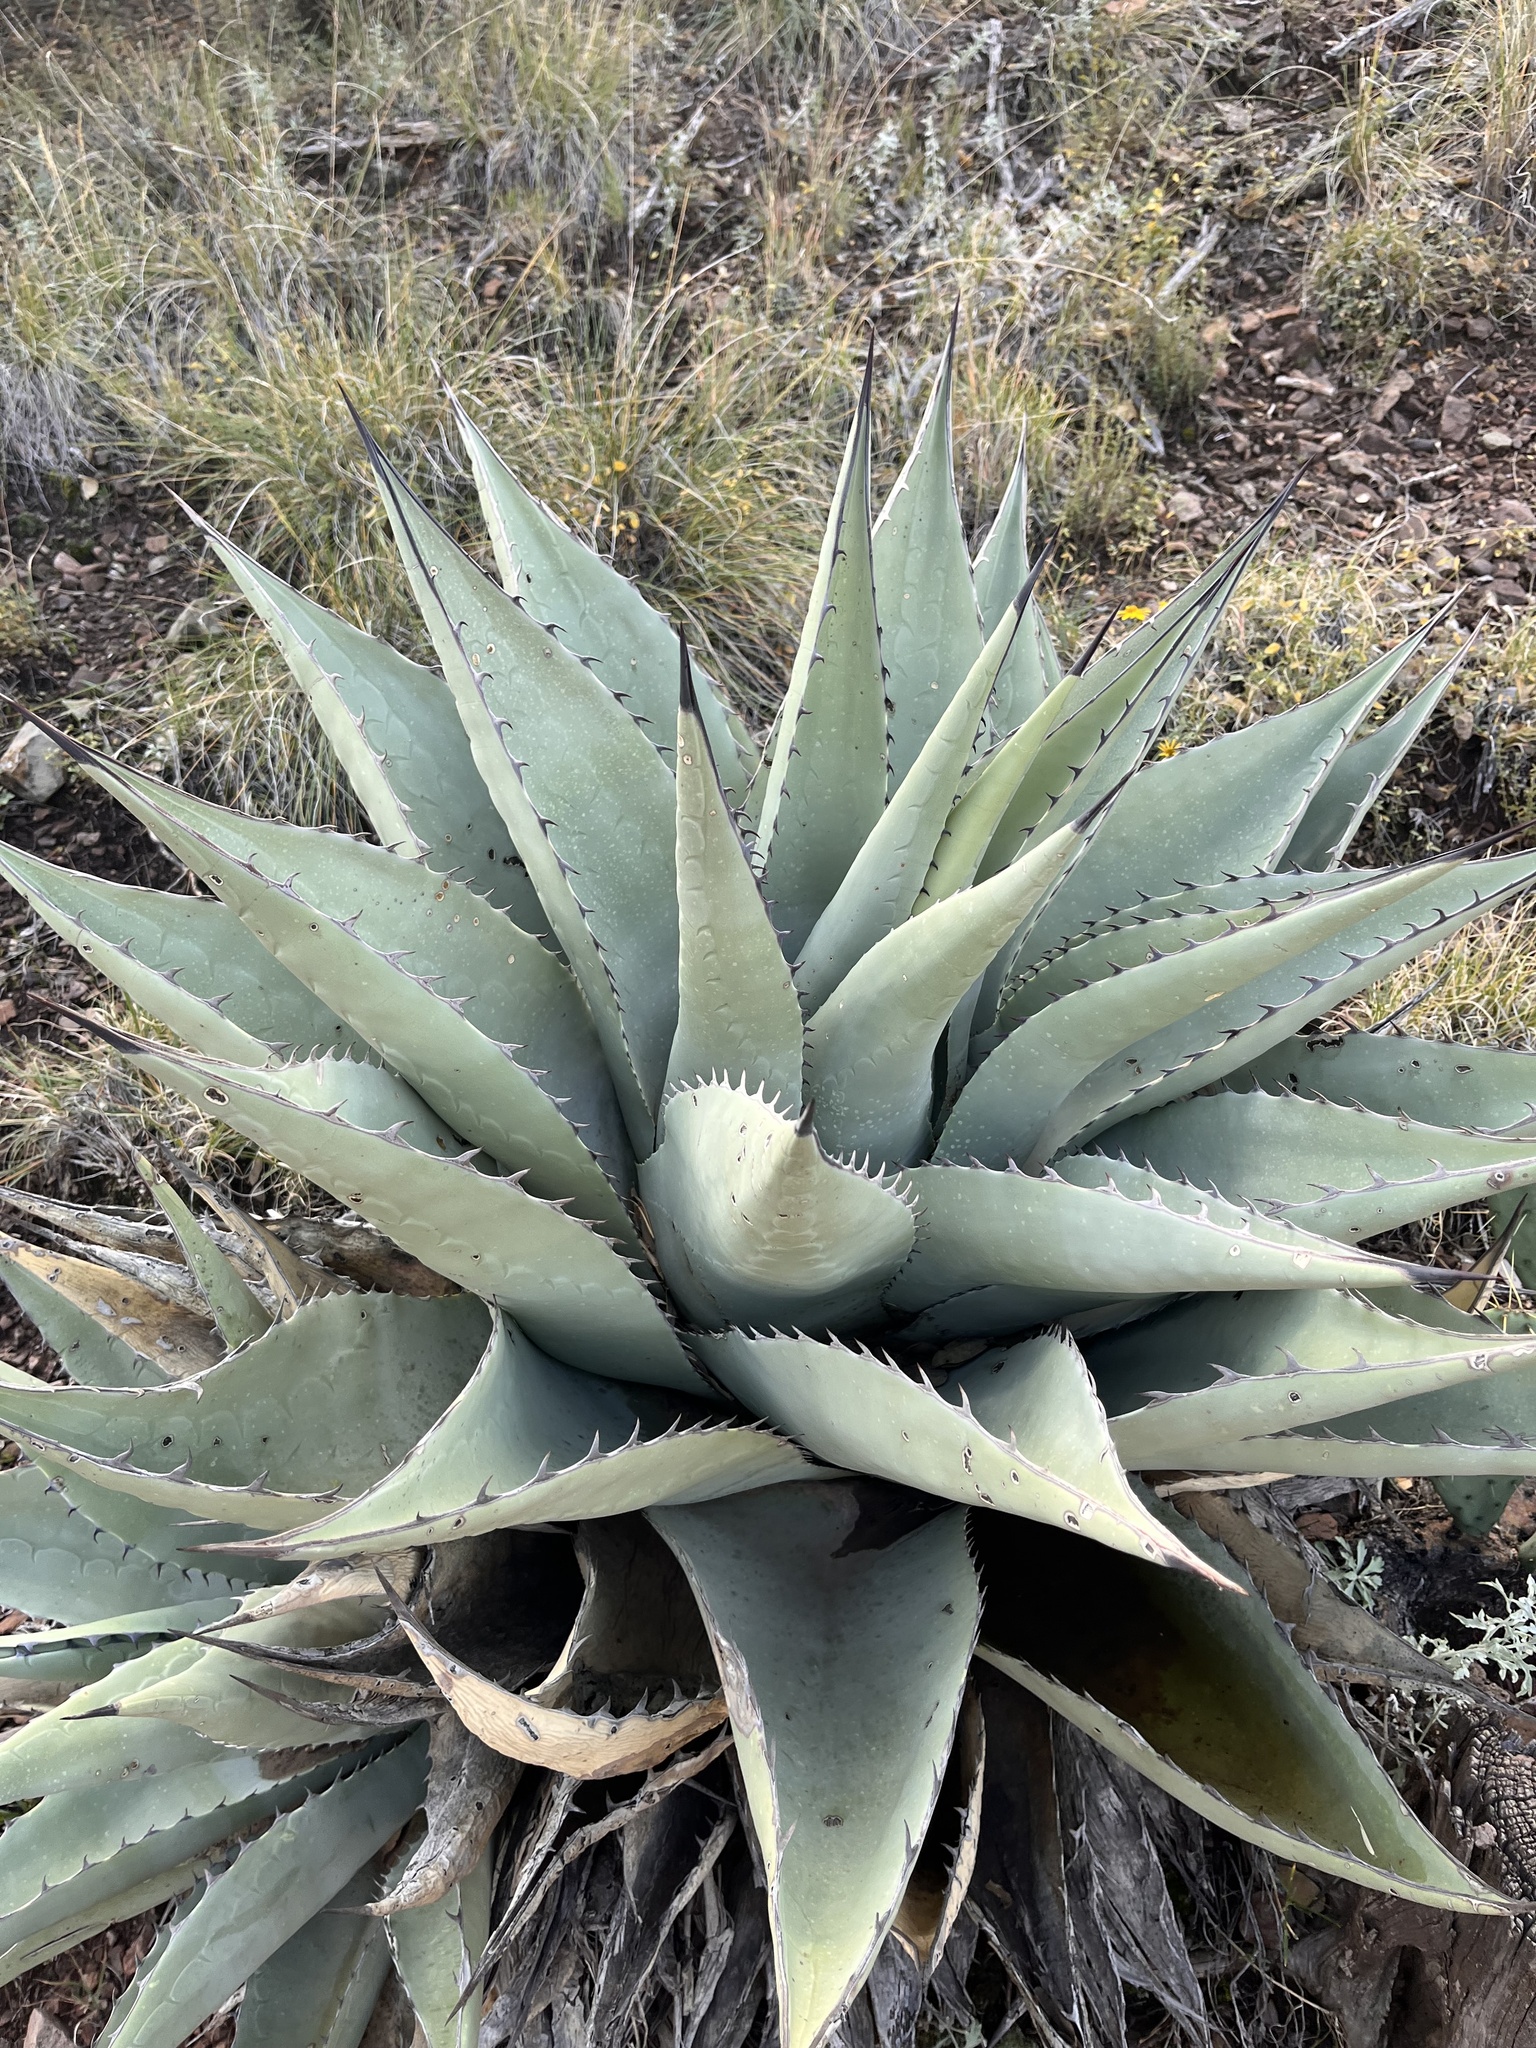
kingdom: Plantae
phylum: Tracheophyta
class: Liliopsida
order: Asparagales
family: Asparagaceae
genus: Agave
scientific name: Agave havardiana
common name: Havard agave
